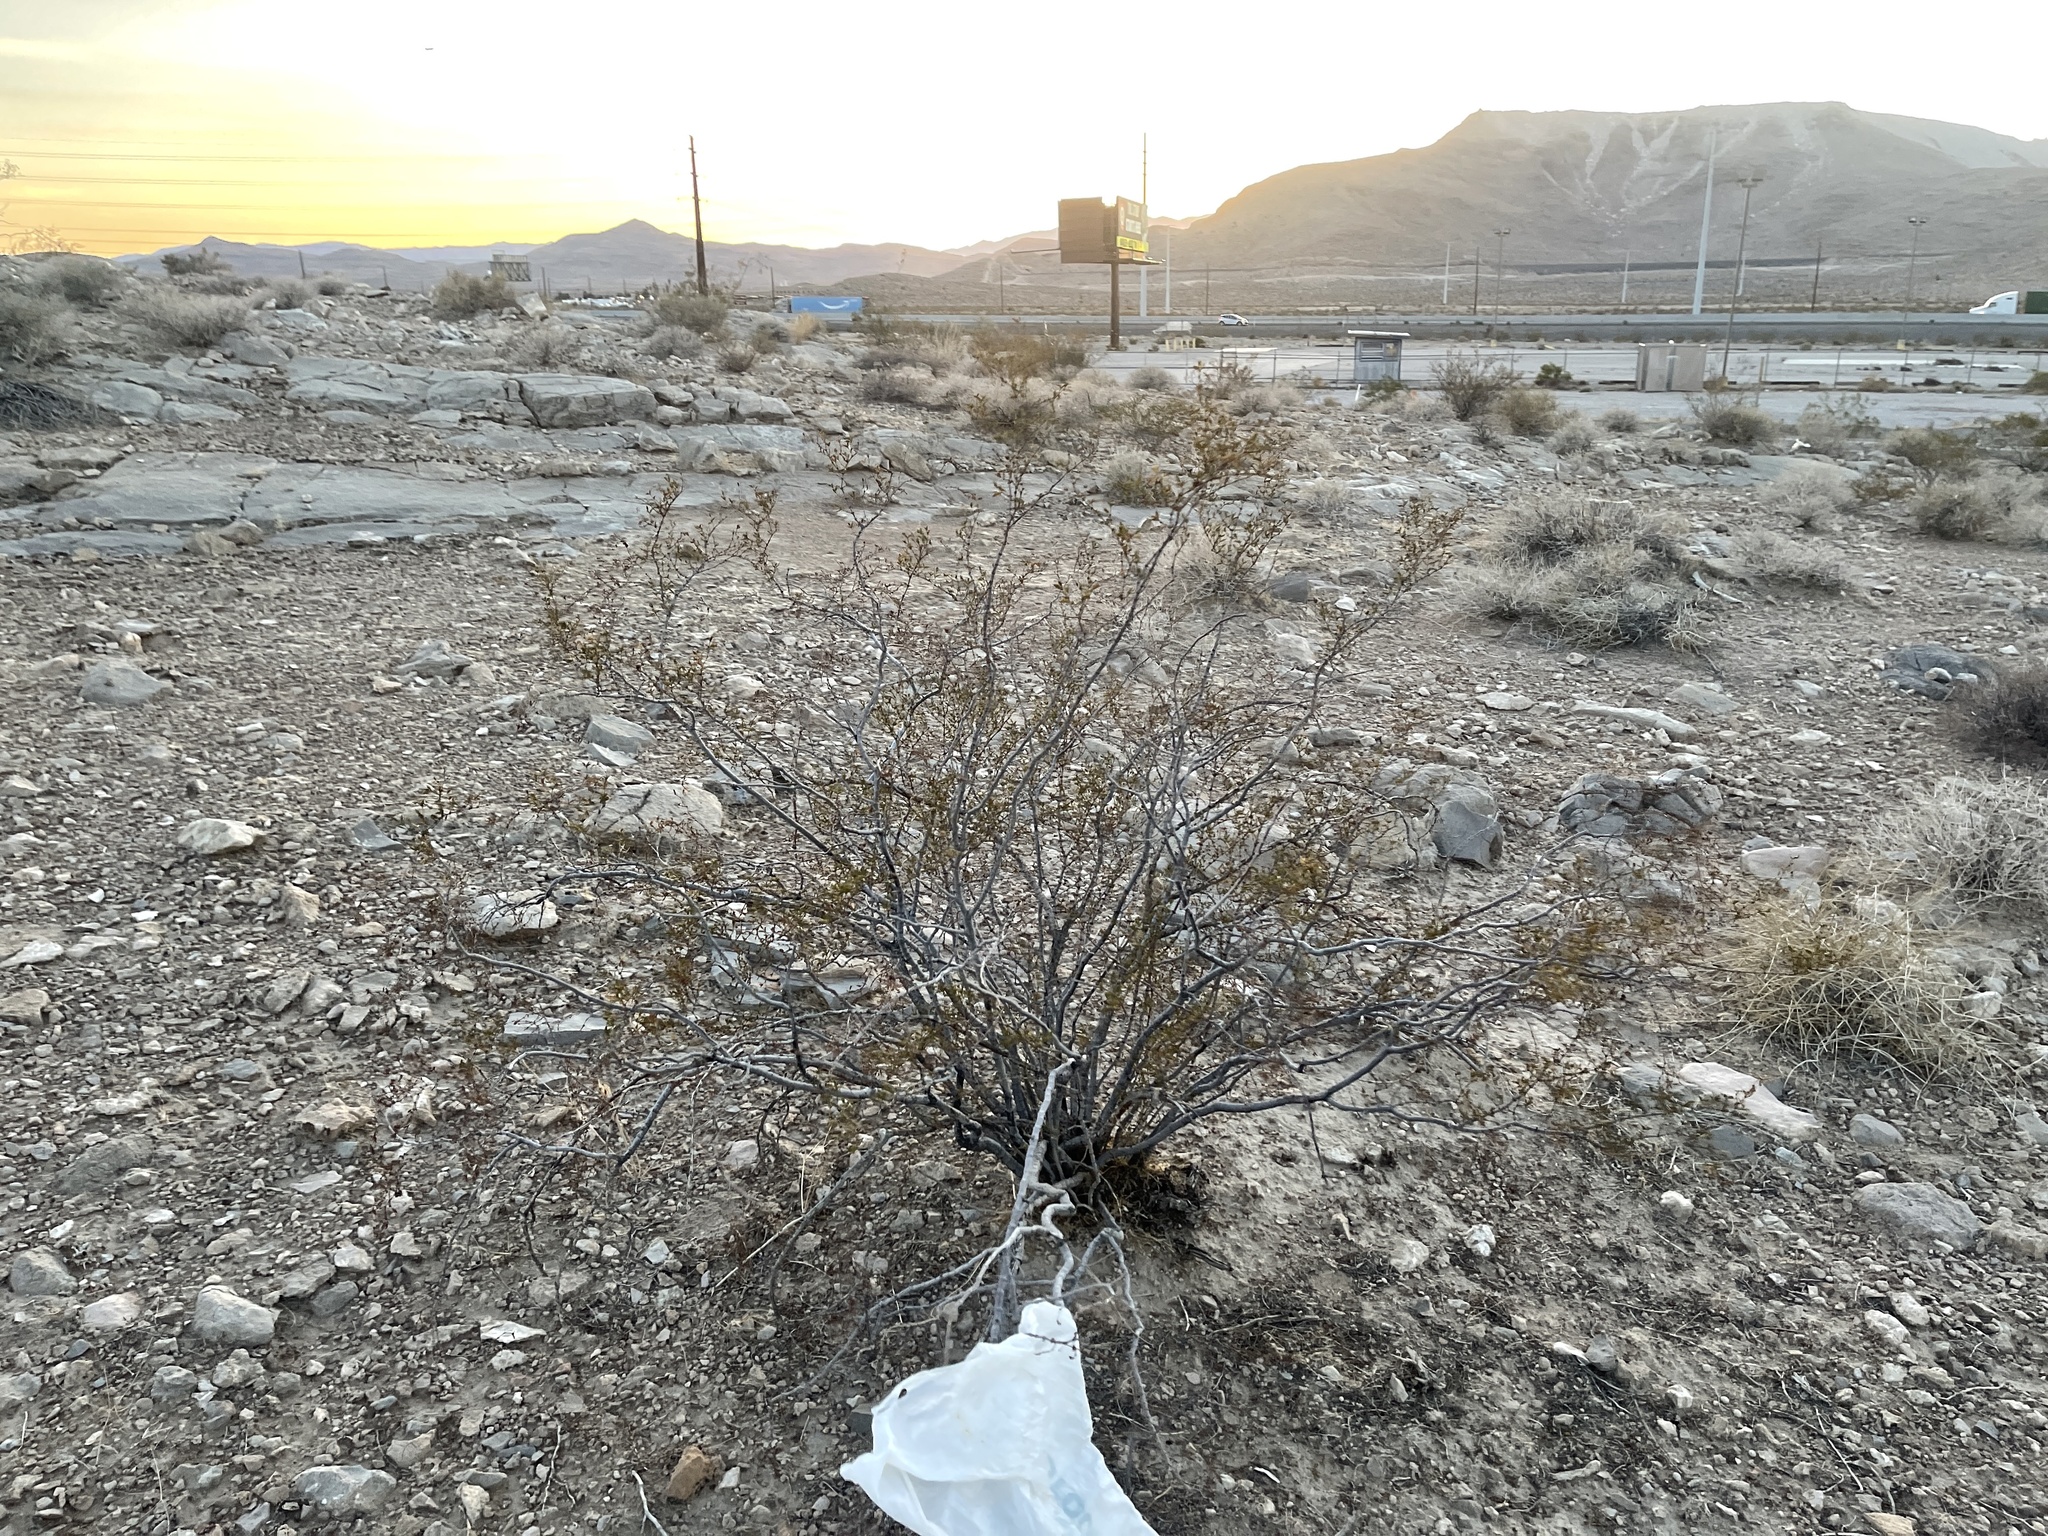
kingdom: Plantae
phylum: Tracheophyta
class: Magnoliopsida
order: Zygophyllales
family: Zygophyllaceae
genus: Larrea
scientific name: Larrea tridentata
